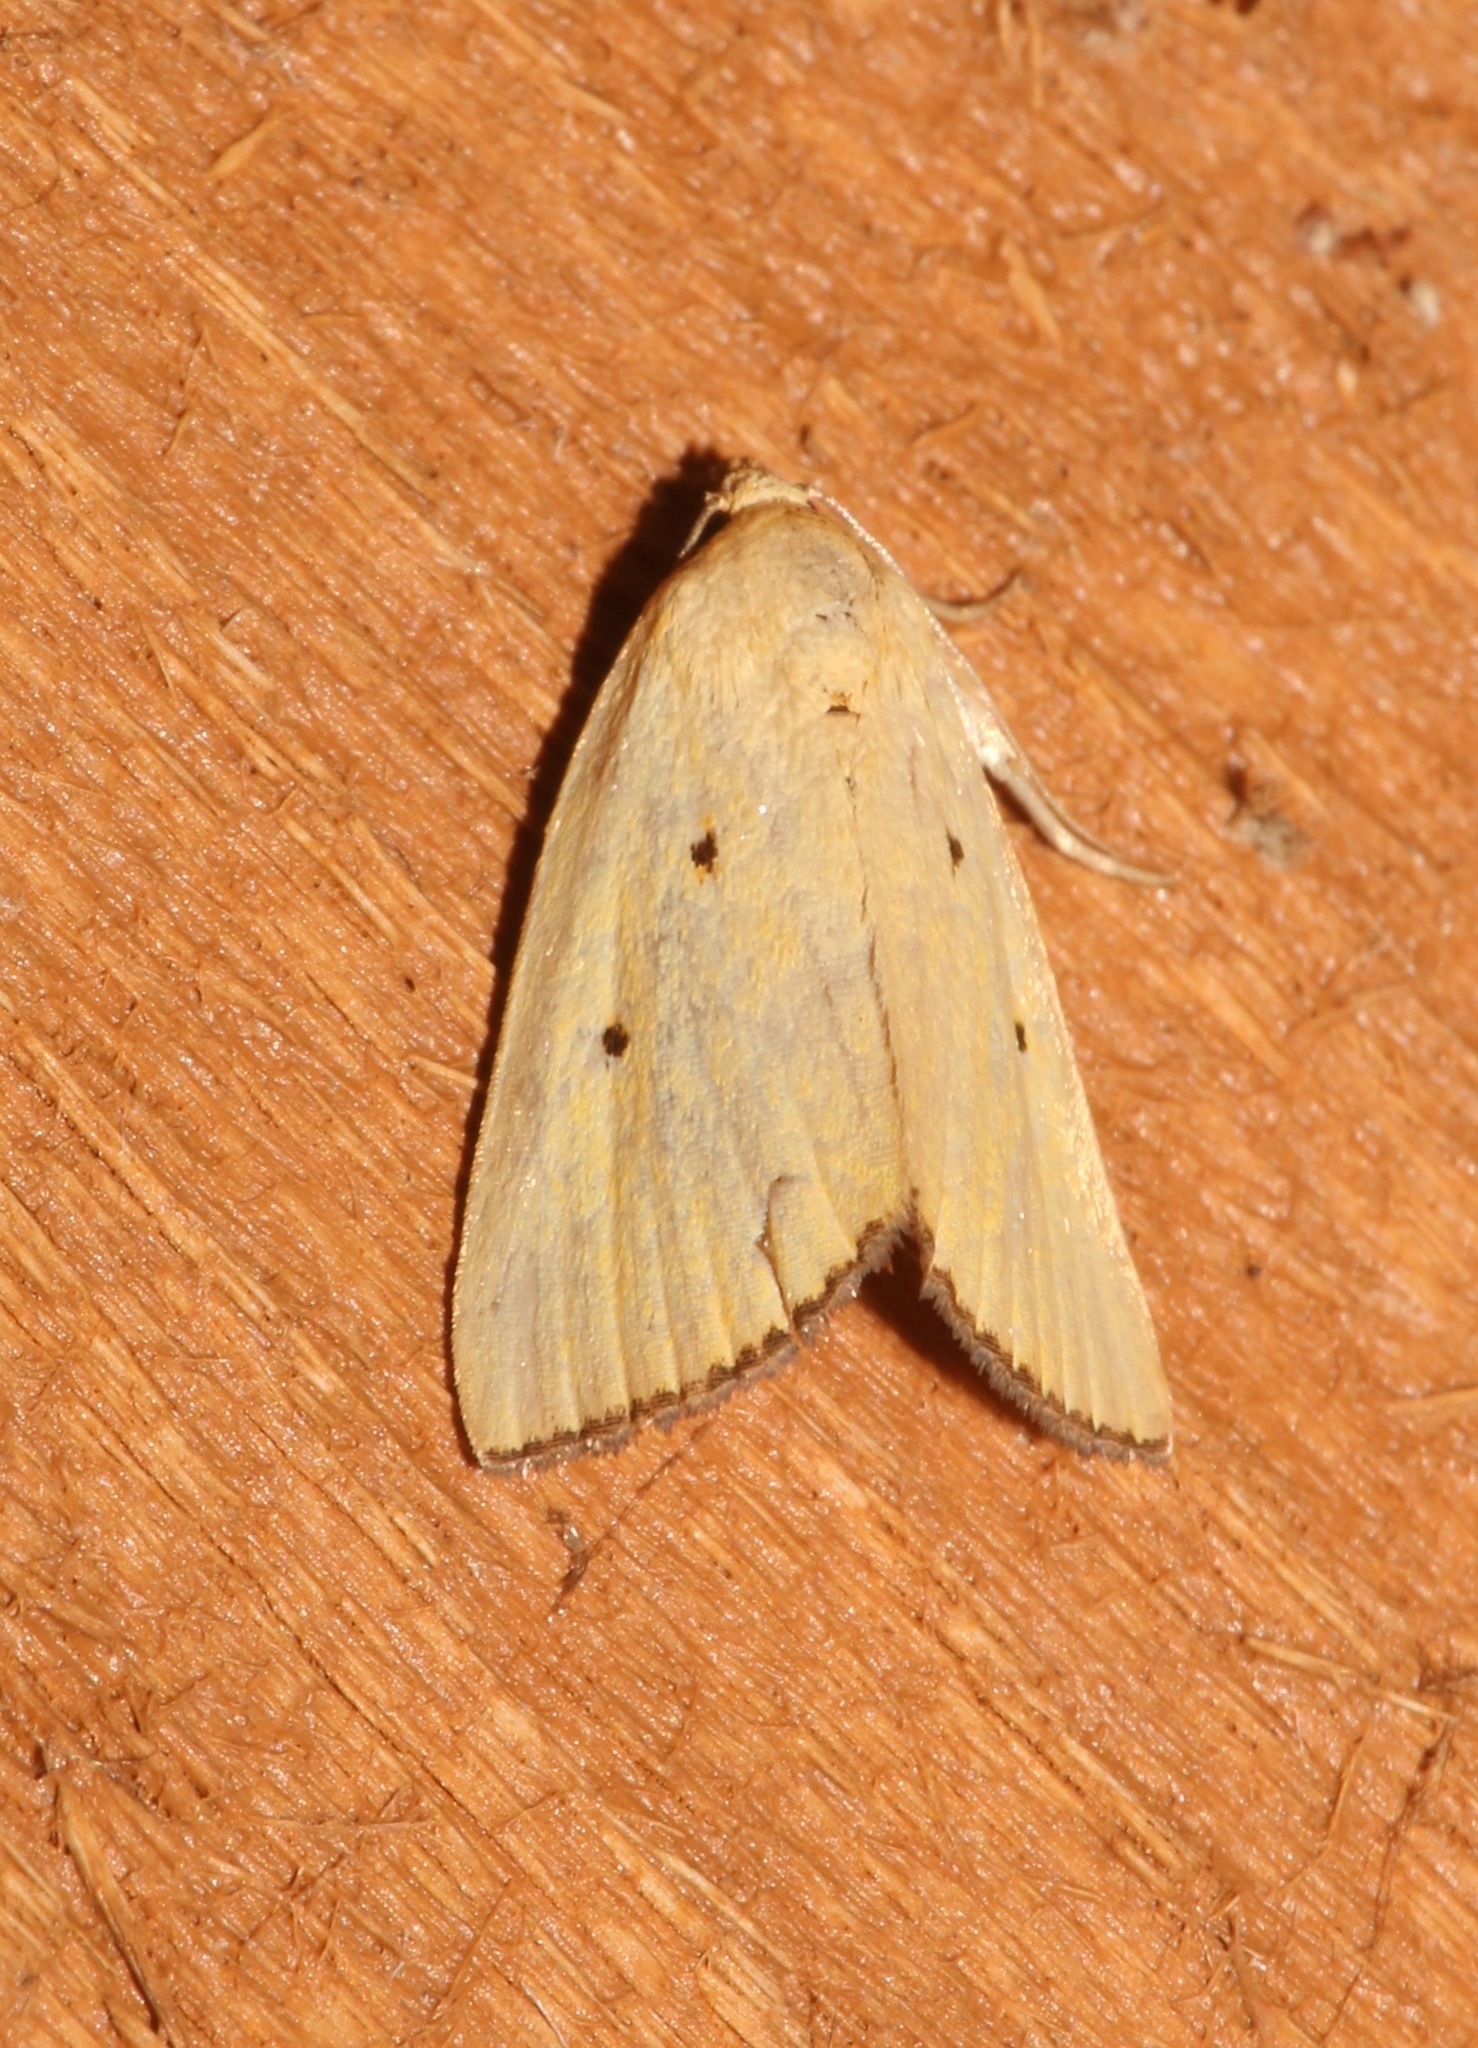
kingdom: Animalia
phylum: Arthropoda
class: Insecta
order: Lepidoptera
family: Noctuidae
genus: Marimatha
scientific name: Marimatha nigrofimbria
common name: Black-bordered lemon moth
